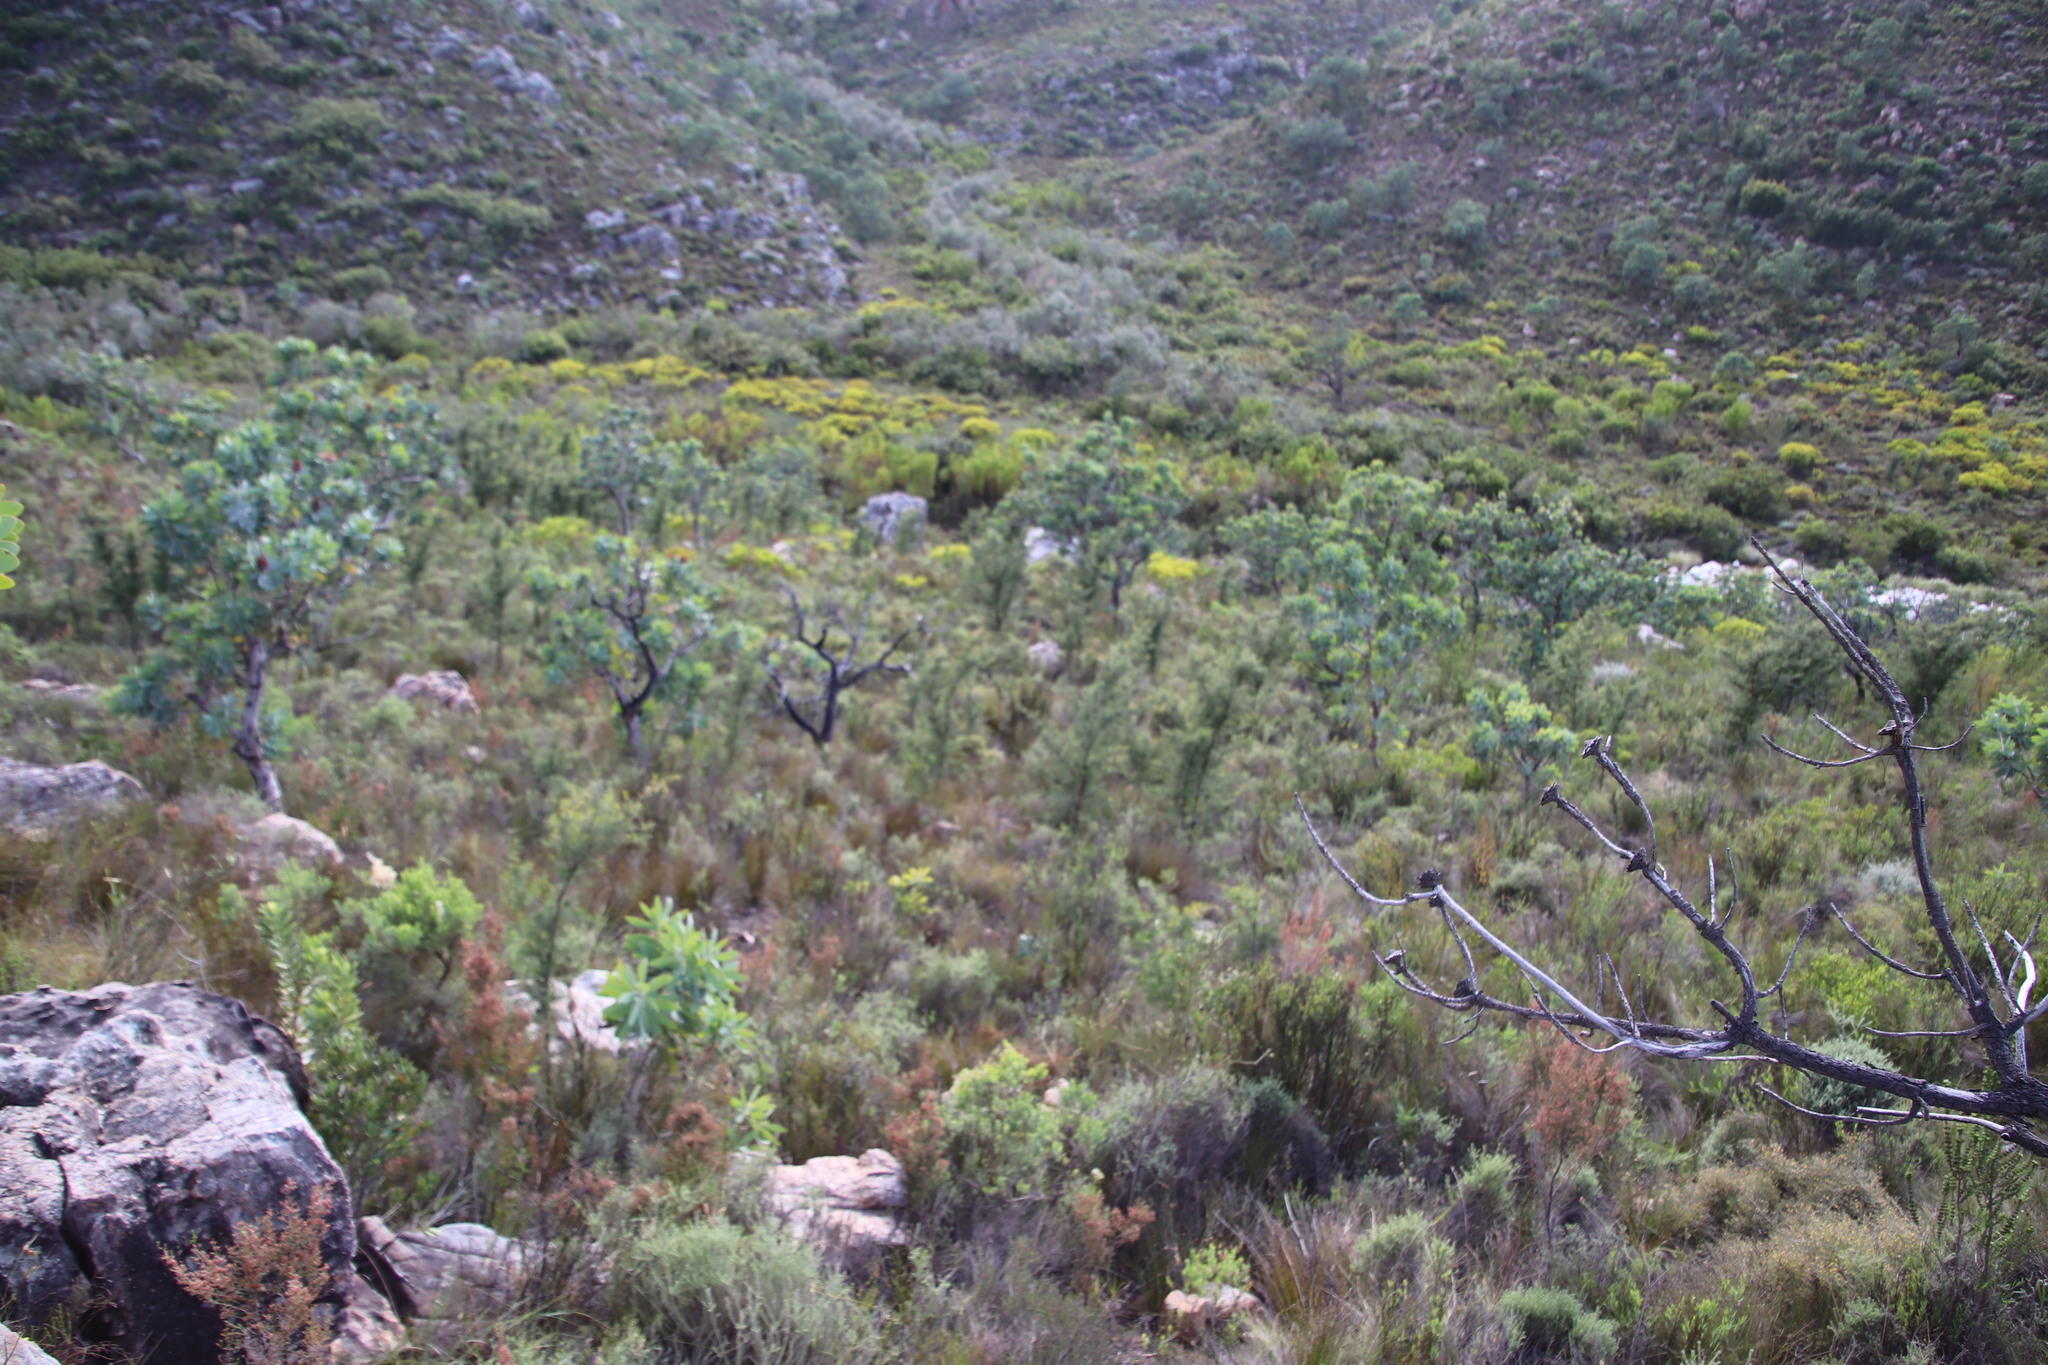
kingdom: Plantae
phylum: Tracheophyta
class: Magnoliopsida
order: Proteales
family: Proteaceae
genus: Protea
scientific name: Protea nitida
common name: Tree protea
